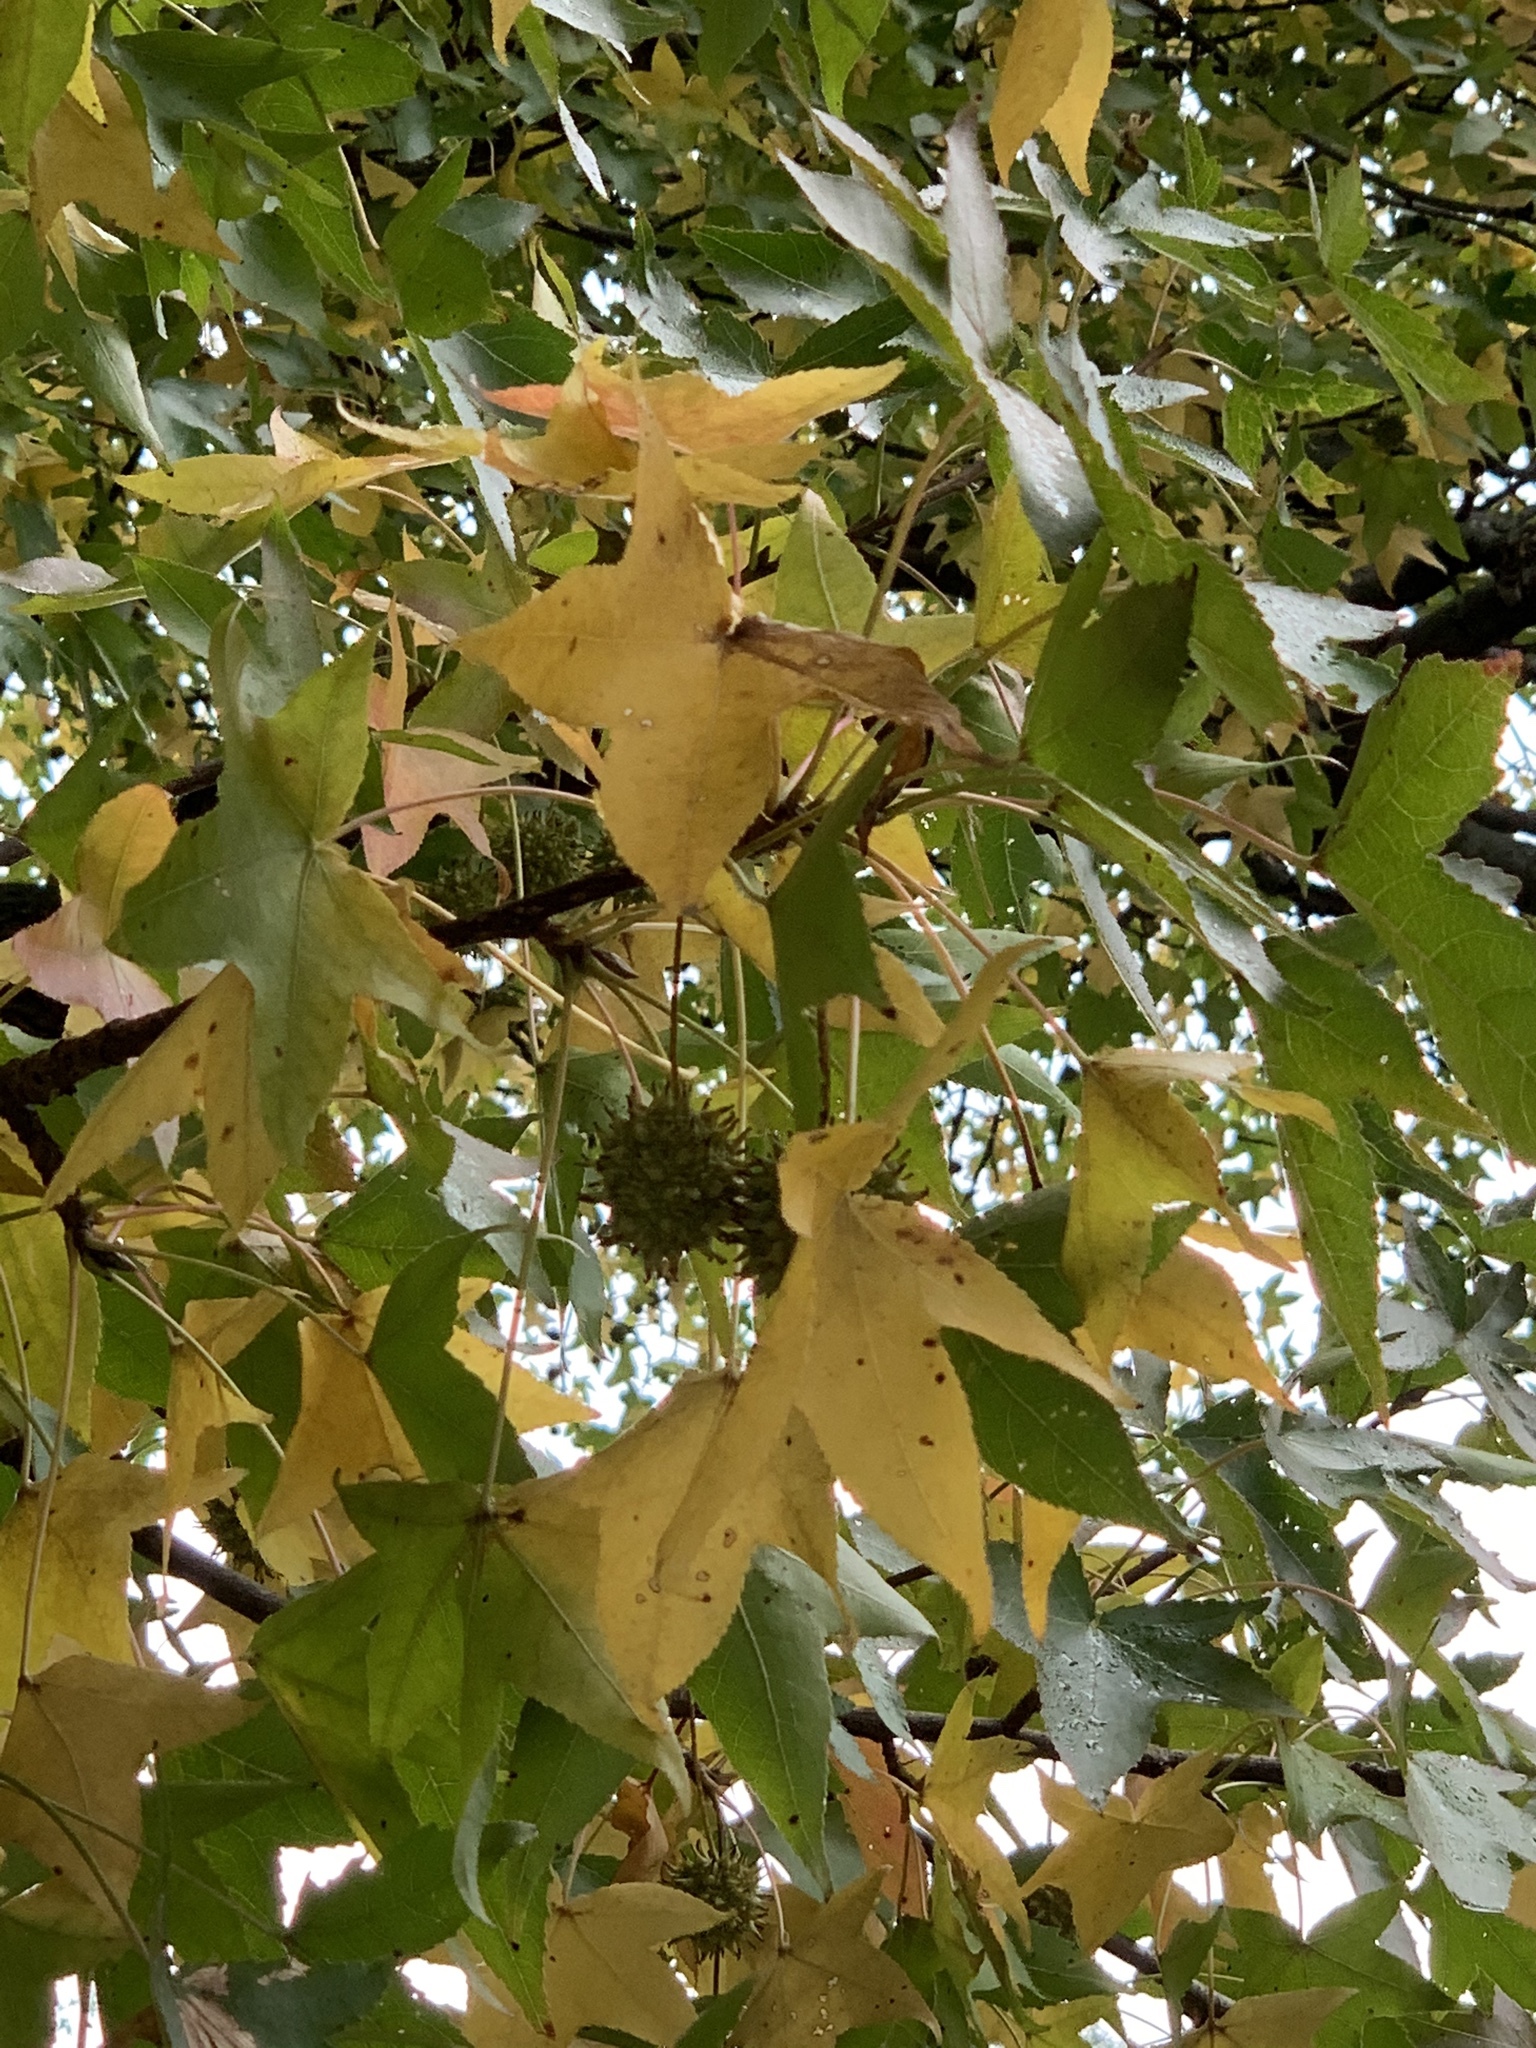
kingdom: Plantae
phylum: Tracheophyta
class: Magnoliopsida
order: Saxifragales
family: Altingiaceae
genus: Liquidambar
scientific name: Liquidambar styraciflua
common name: Sweet gum
